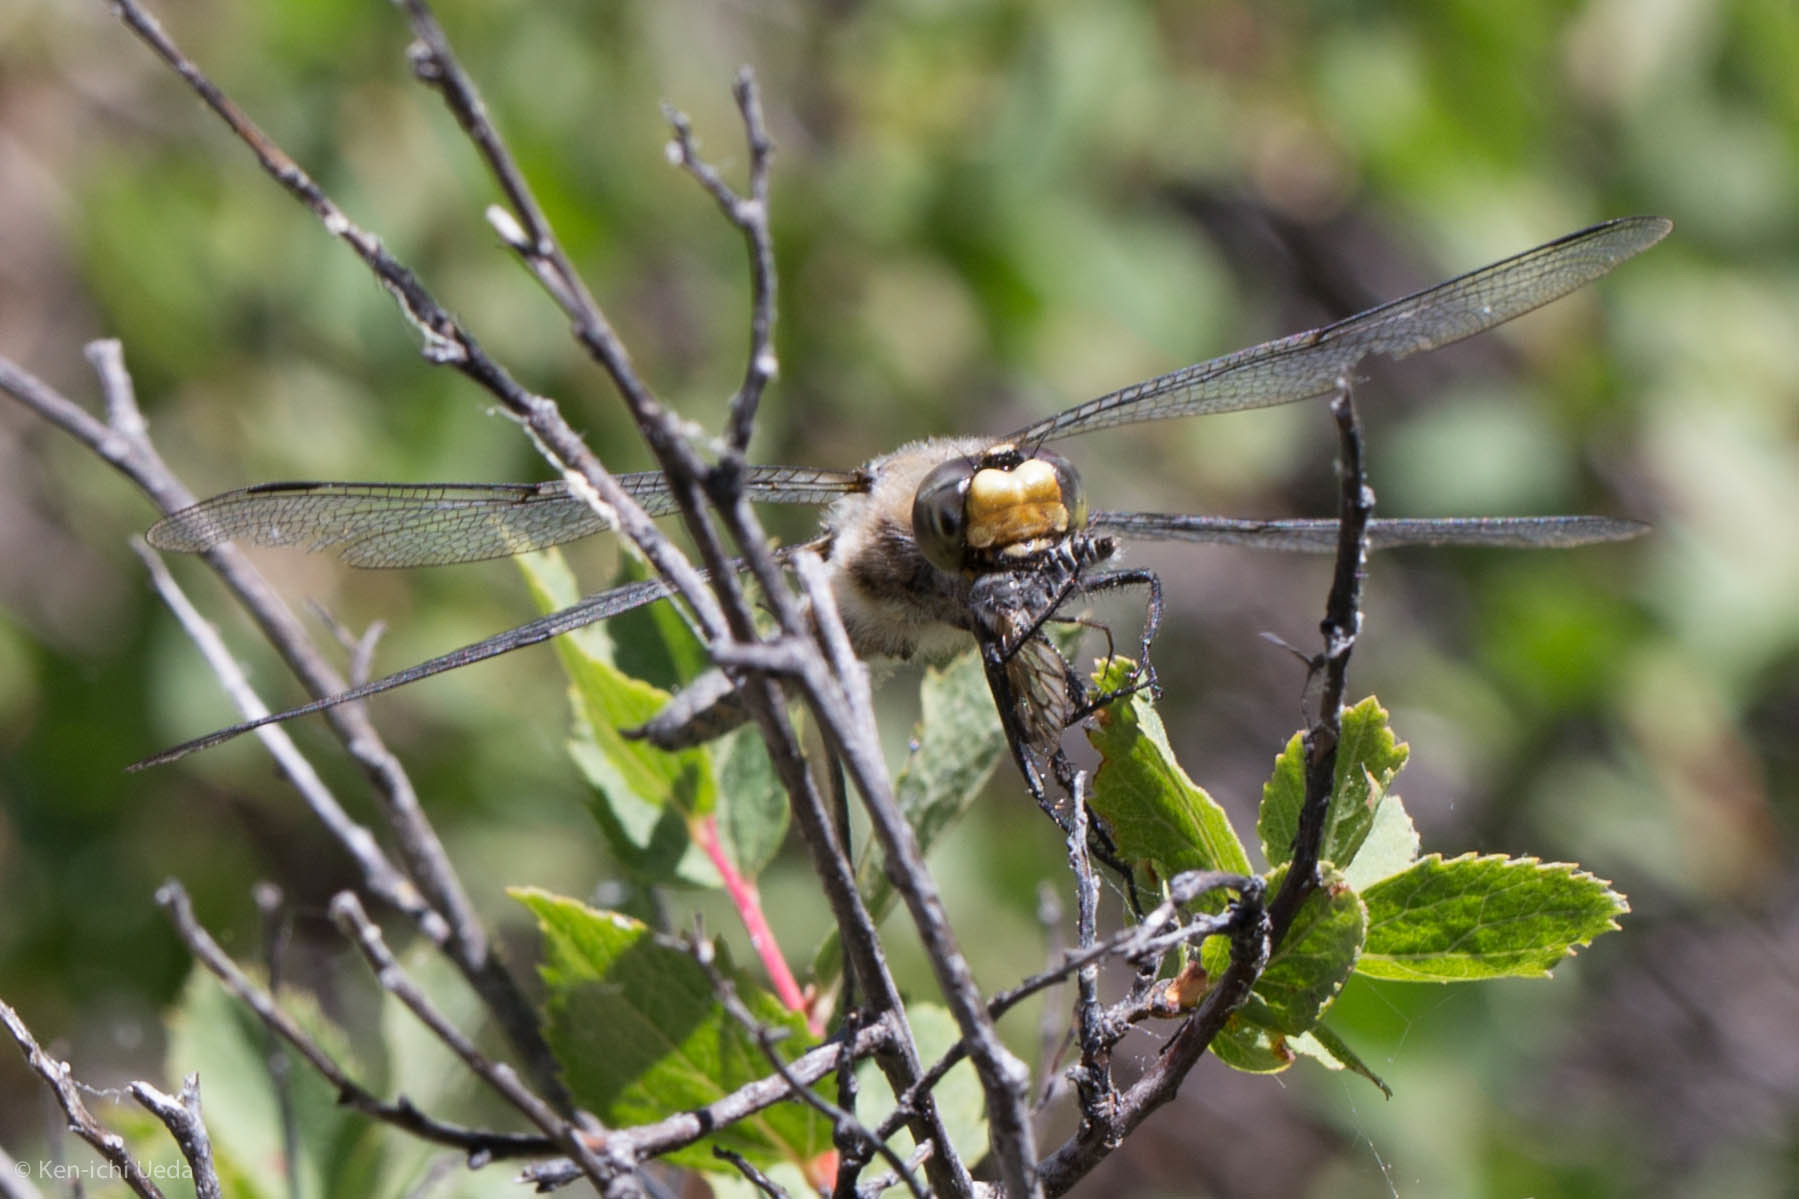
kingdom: Animalia
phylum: Arthropoda
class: Insecta
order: Odonata
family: Libellulidae
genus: Libellula
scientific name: Libellula quadrimaculata
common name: Four-spotted chaser
